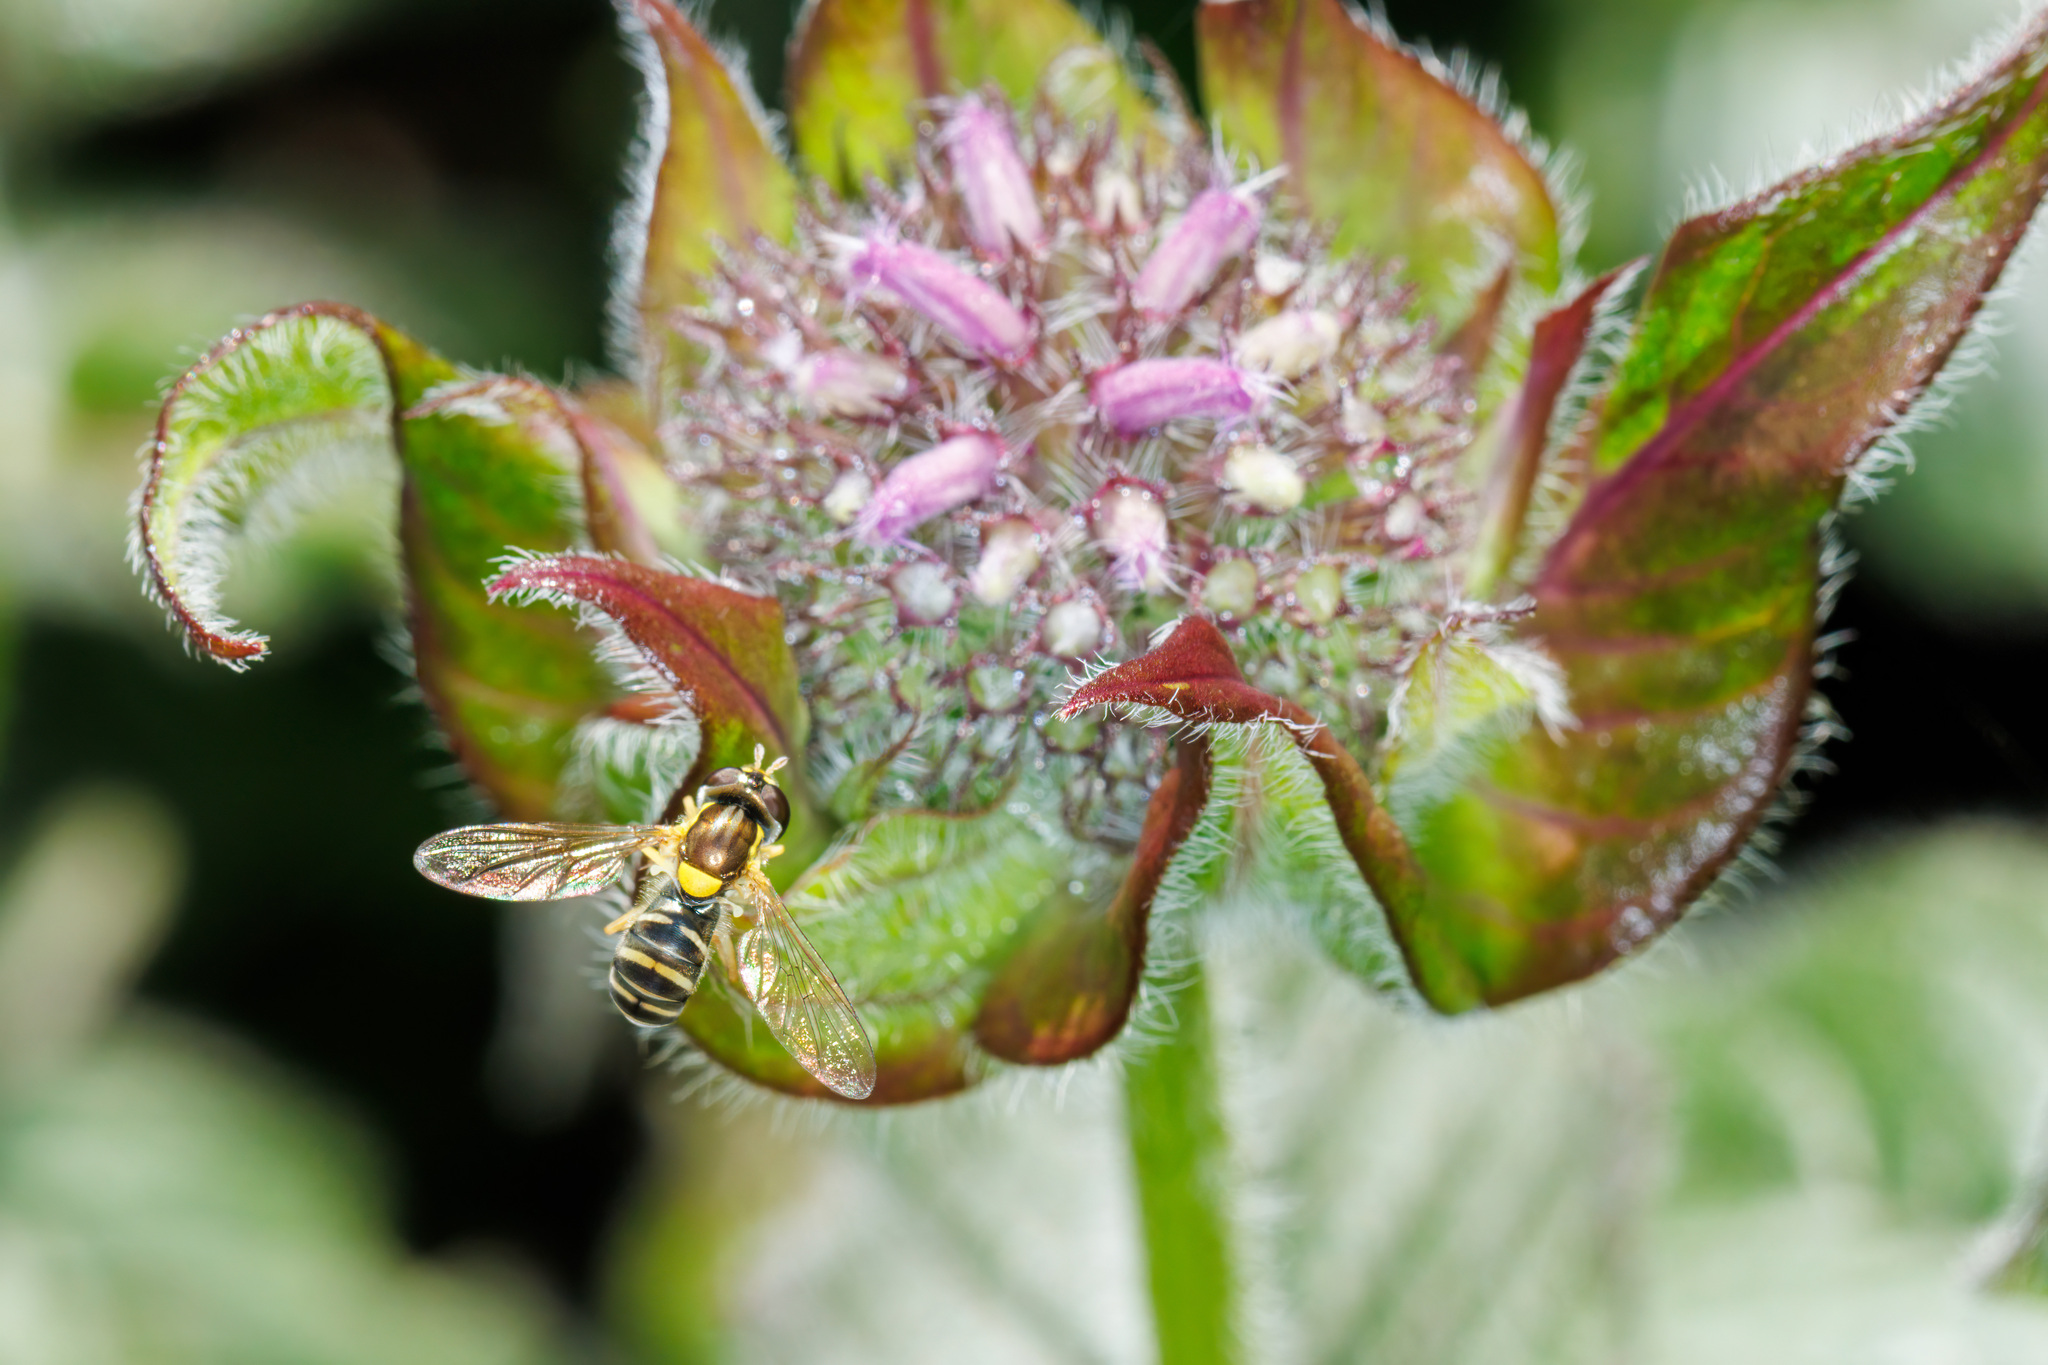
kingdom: Animalia
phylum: Arthropoda
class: Insecta
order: Diptera
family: Syrphidae
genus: Sphaerophoria
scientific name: Sphaerophoria sulphuripes
